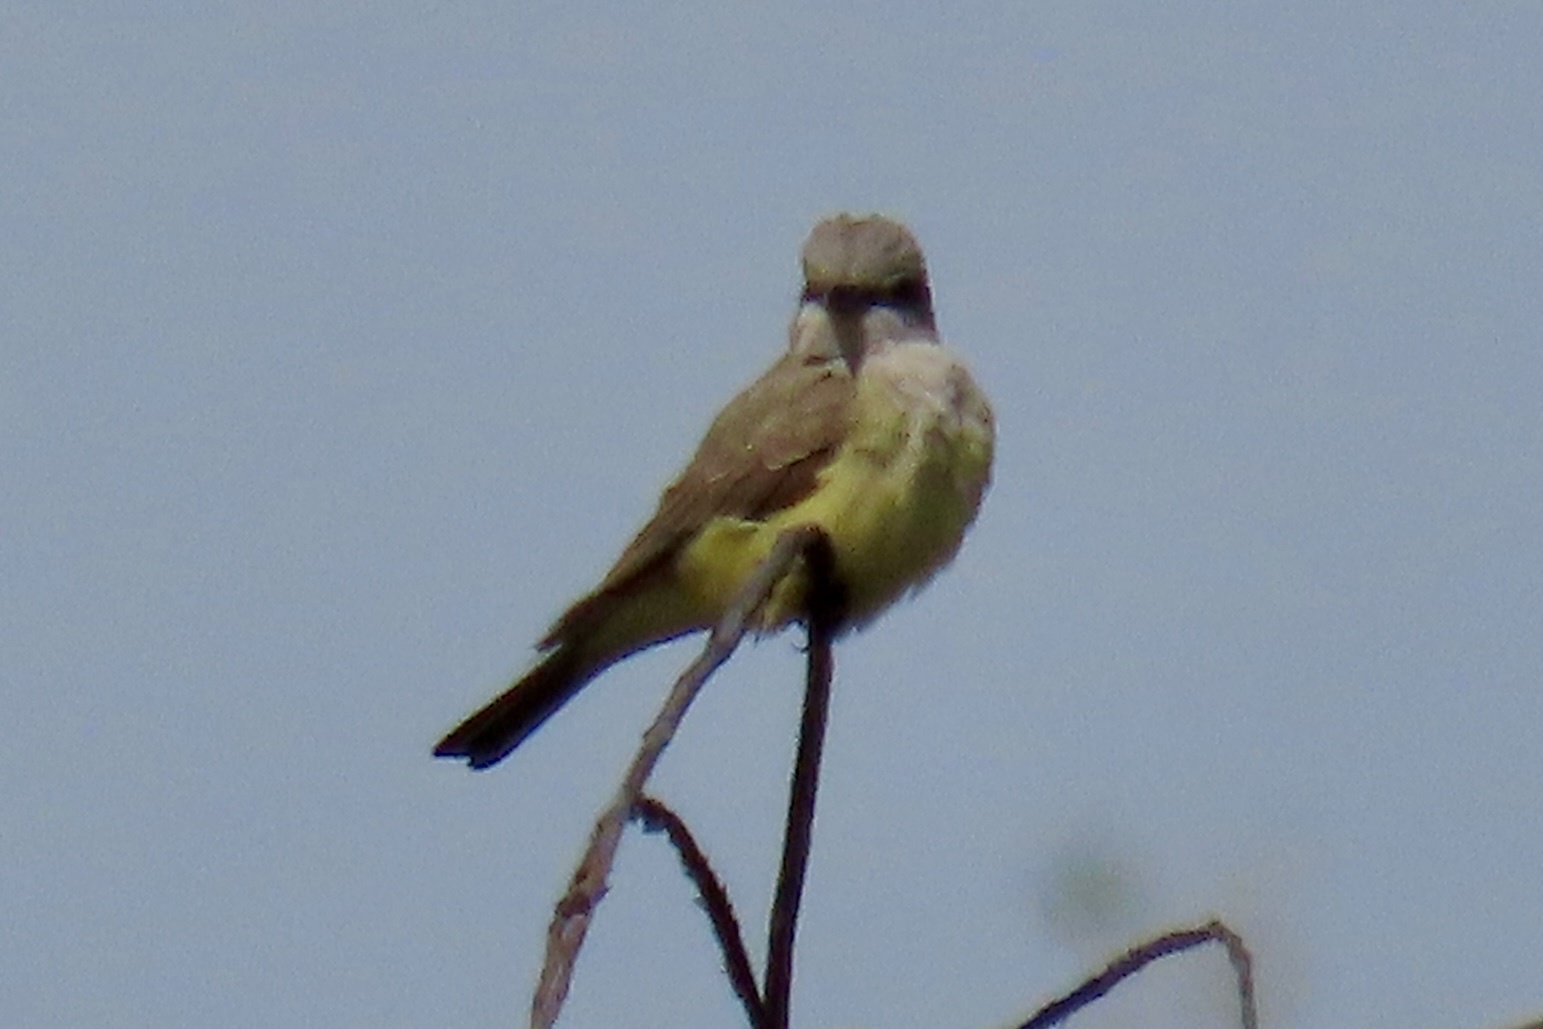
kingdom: Animalia
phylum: Chordata
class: Aves
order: Passeriformes
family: Tyrannidae
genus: Tyrannus
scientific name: Tyrannus verticalis
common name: Western kingbird
